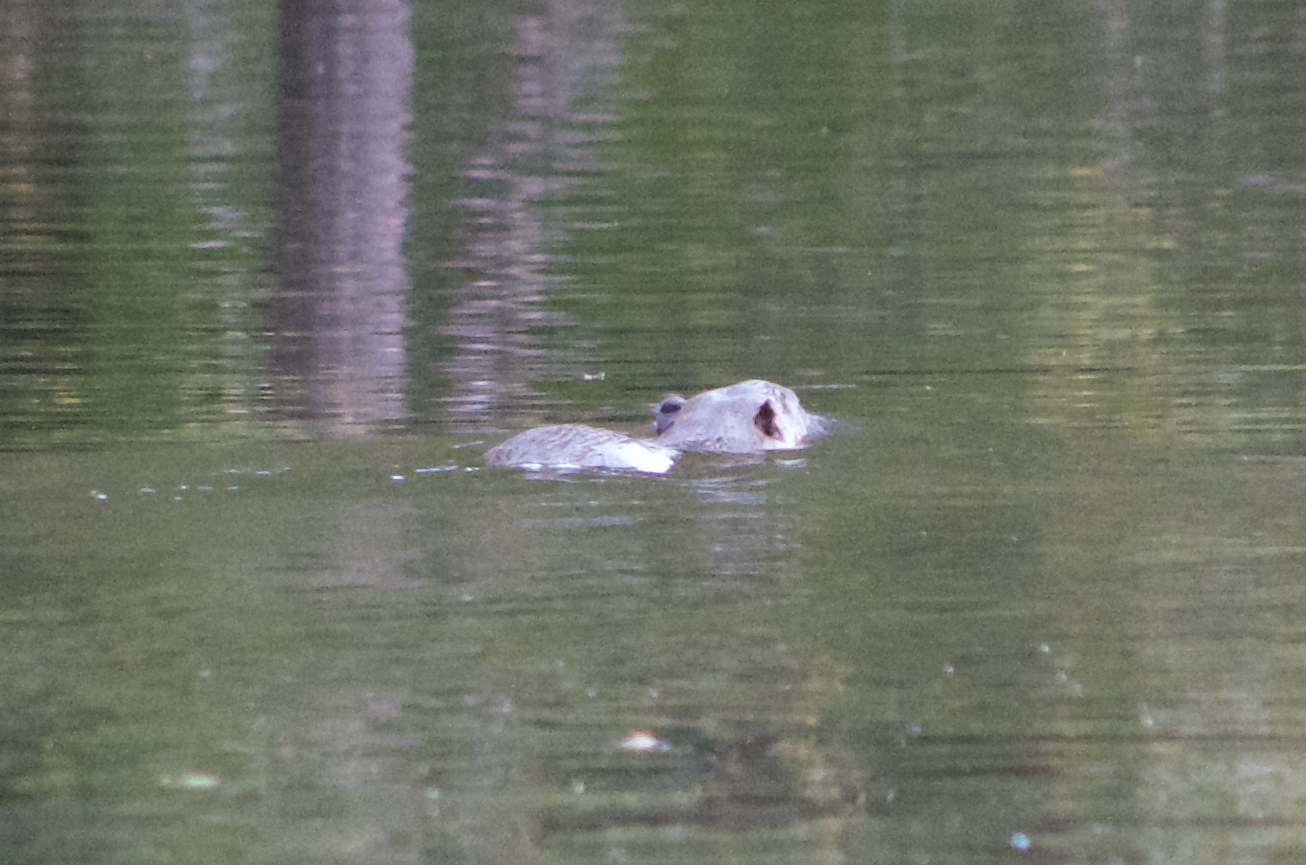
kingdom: Animalia
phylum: Chordata
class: Mammalia
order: Rodentia
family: Myocastoridae
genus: Myocastor
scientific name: Myocastor coypus
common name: Coypu
